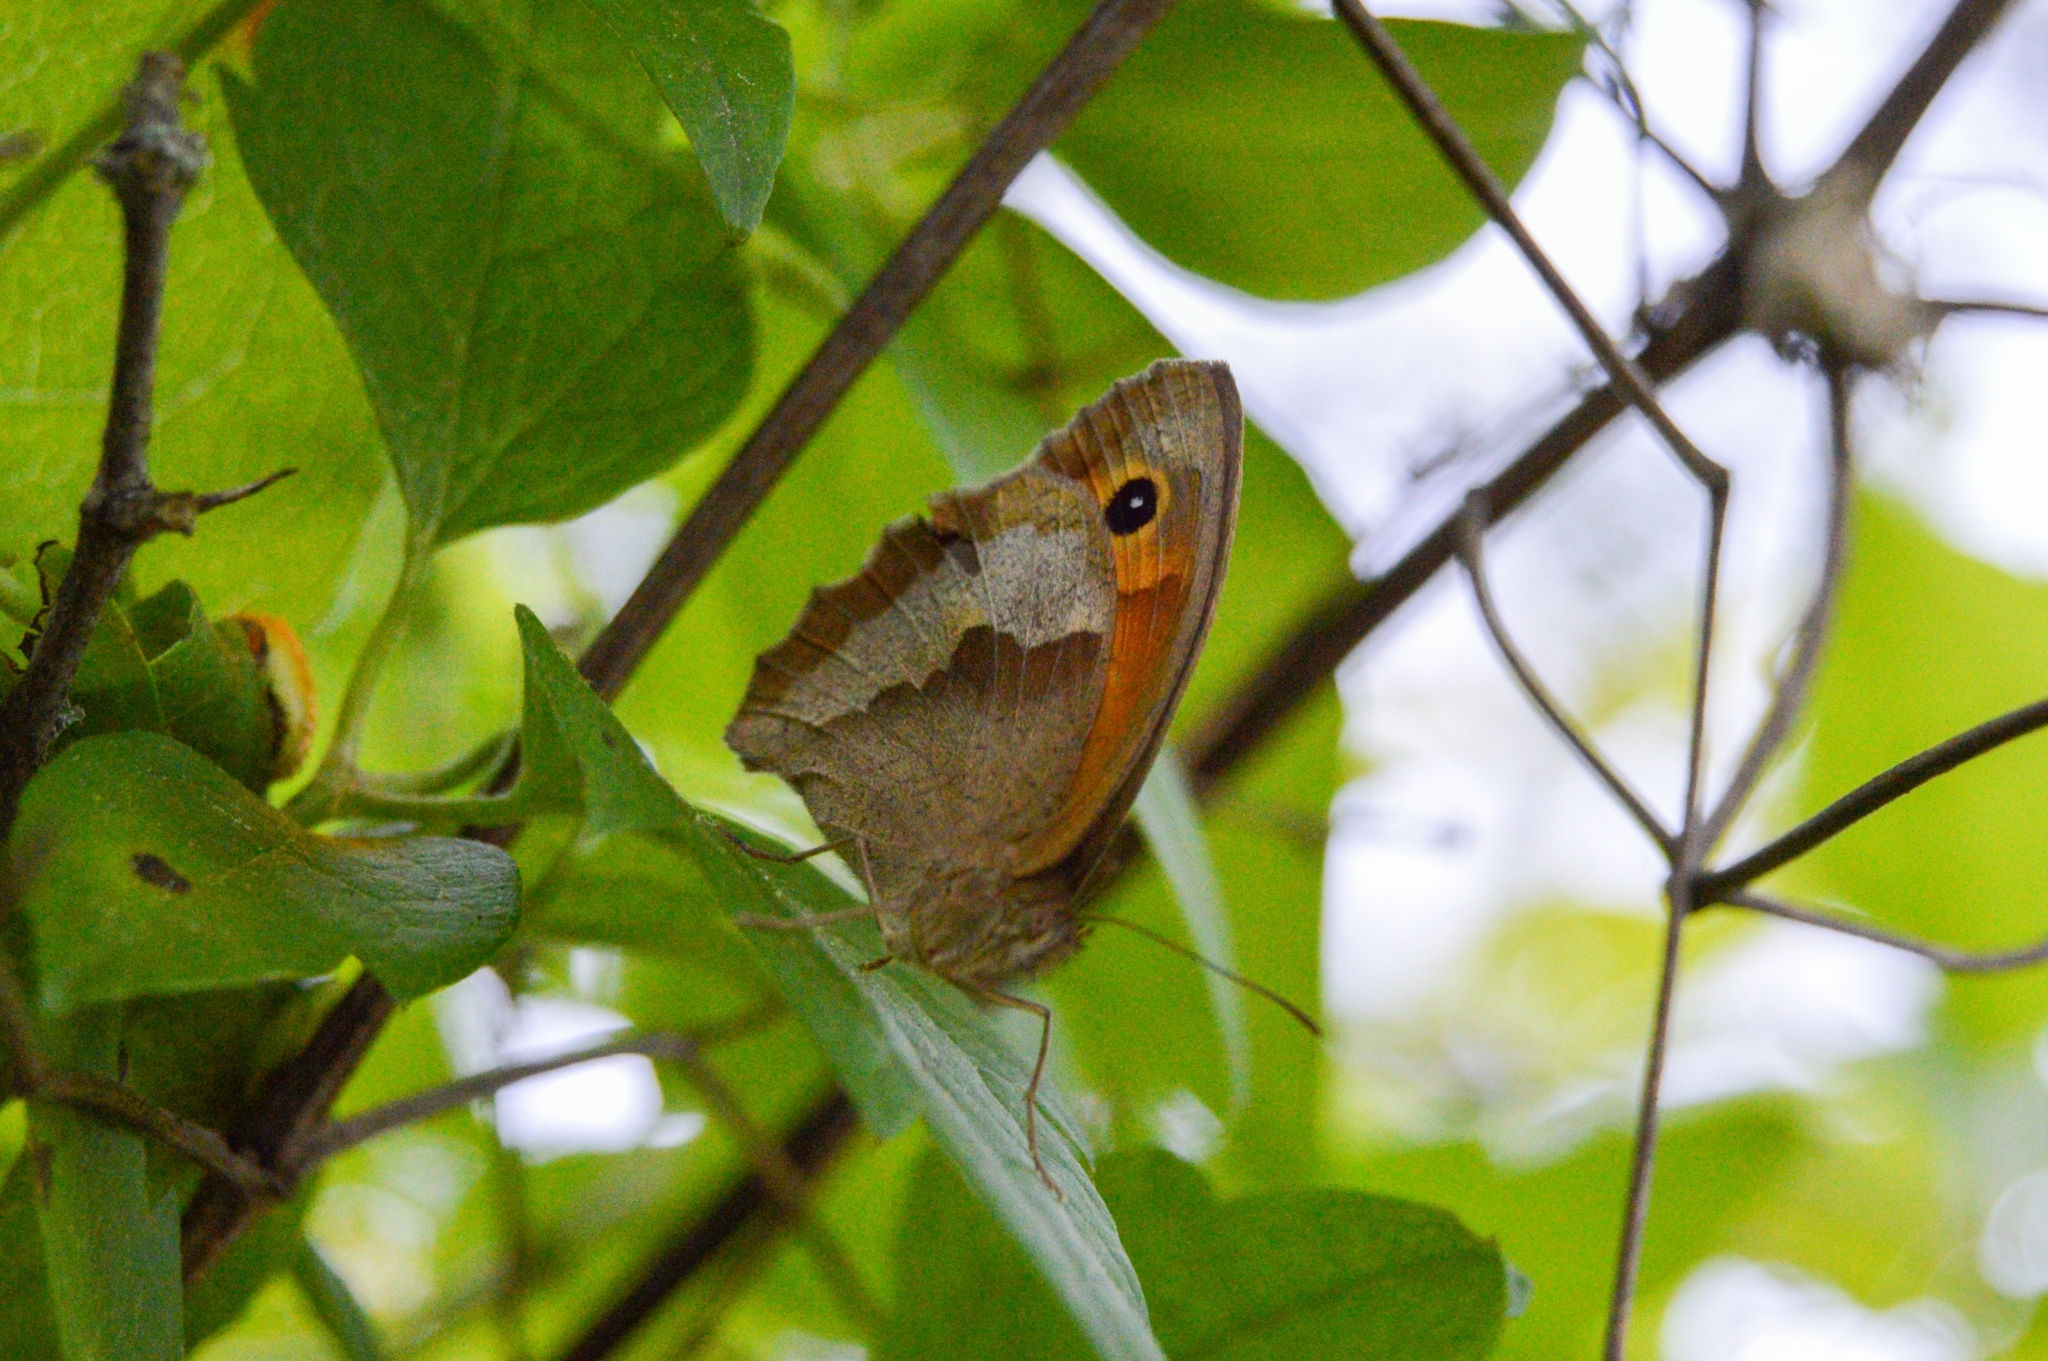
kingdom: Animalia
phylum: Arthropoda
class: Insecta
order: Lepidoptera
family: Nymphalidae
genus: Maniola
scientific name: Maniola jurtina
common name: Meadow brown
